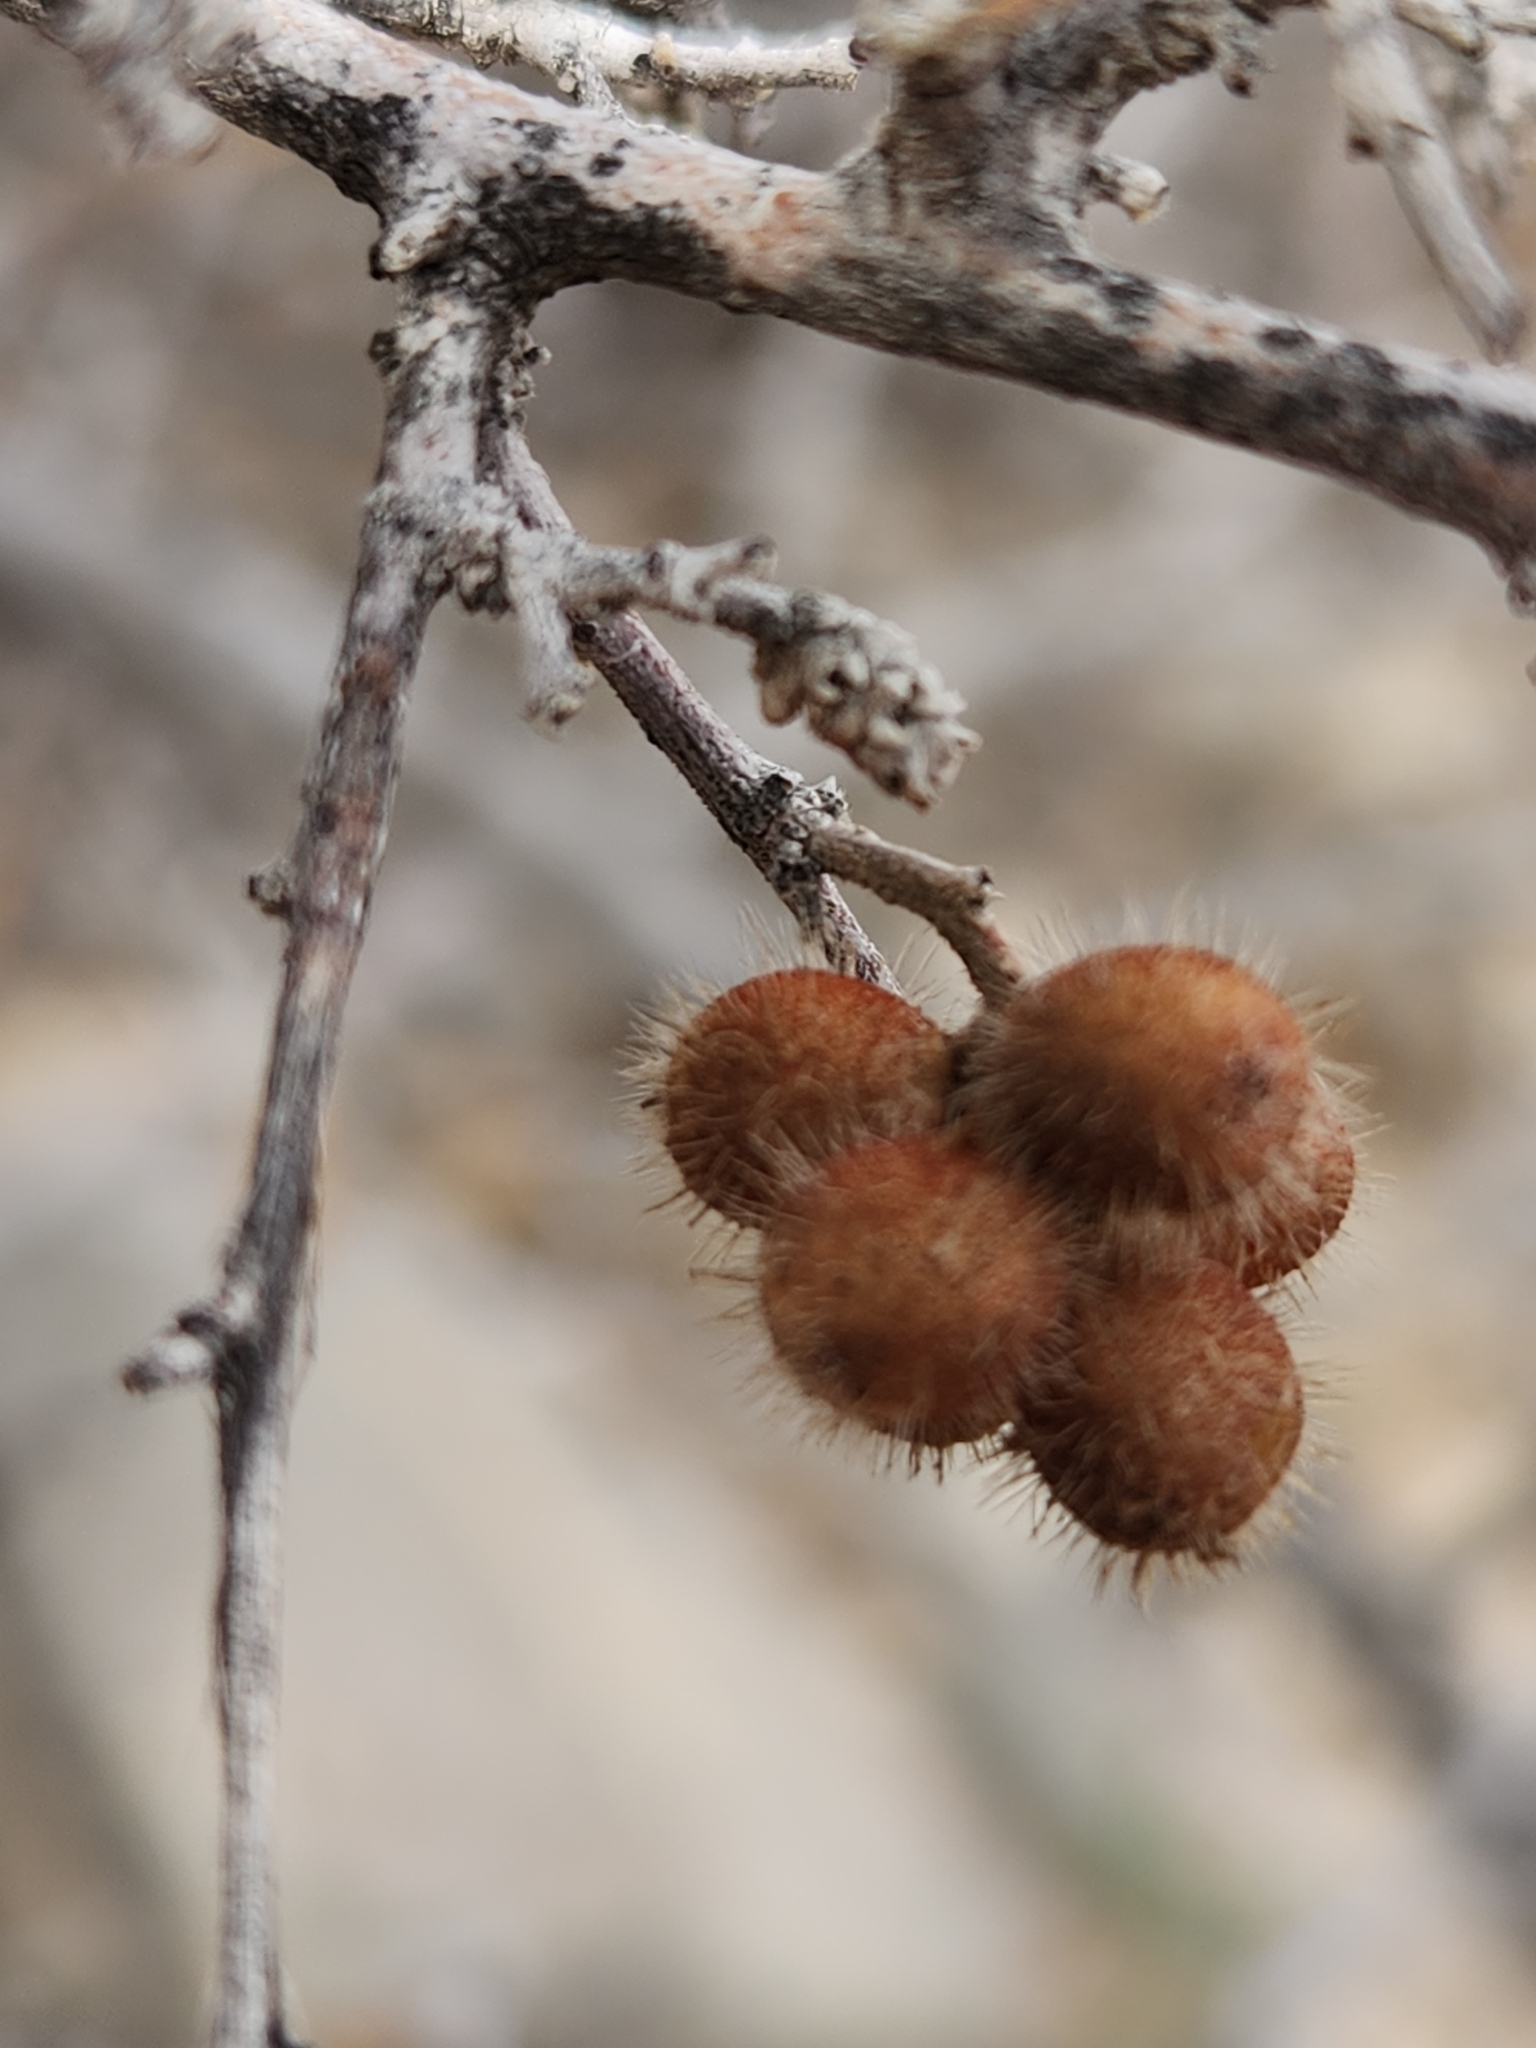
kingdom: Plantae
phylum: Tracheophyta
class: Magnoliopsida
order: Sapindales
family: Anacardiaceae
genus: Rhus
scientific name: Rhus microphylla
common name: Desert sumac
